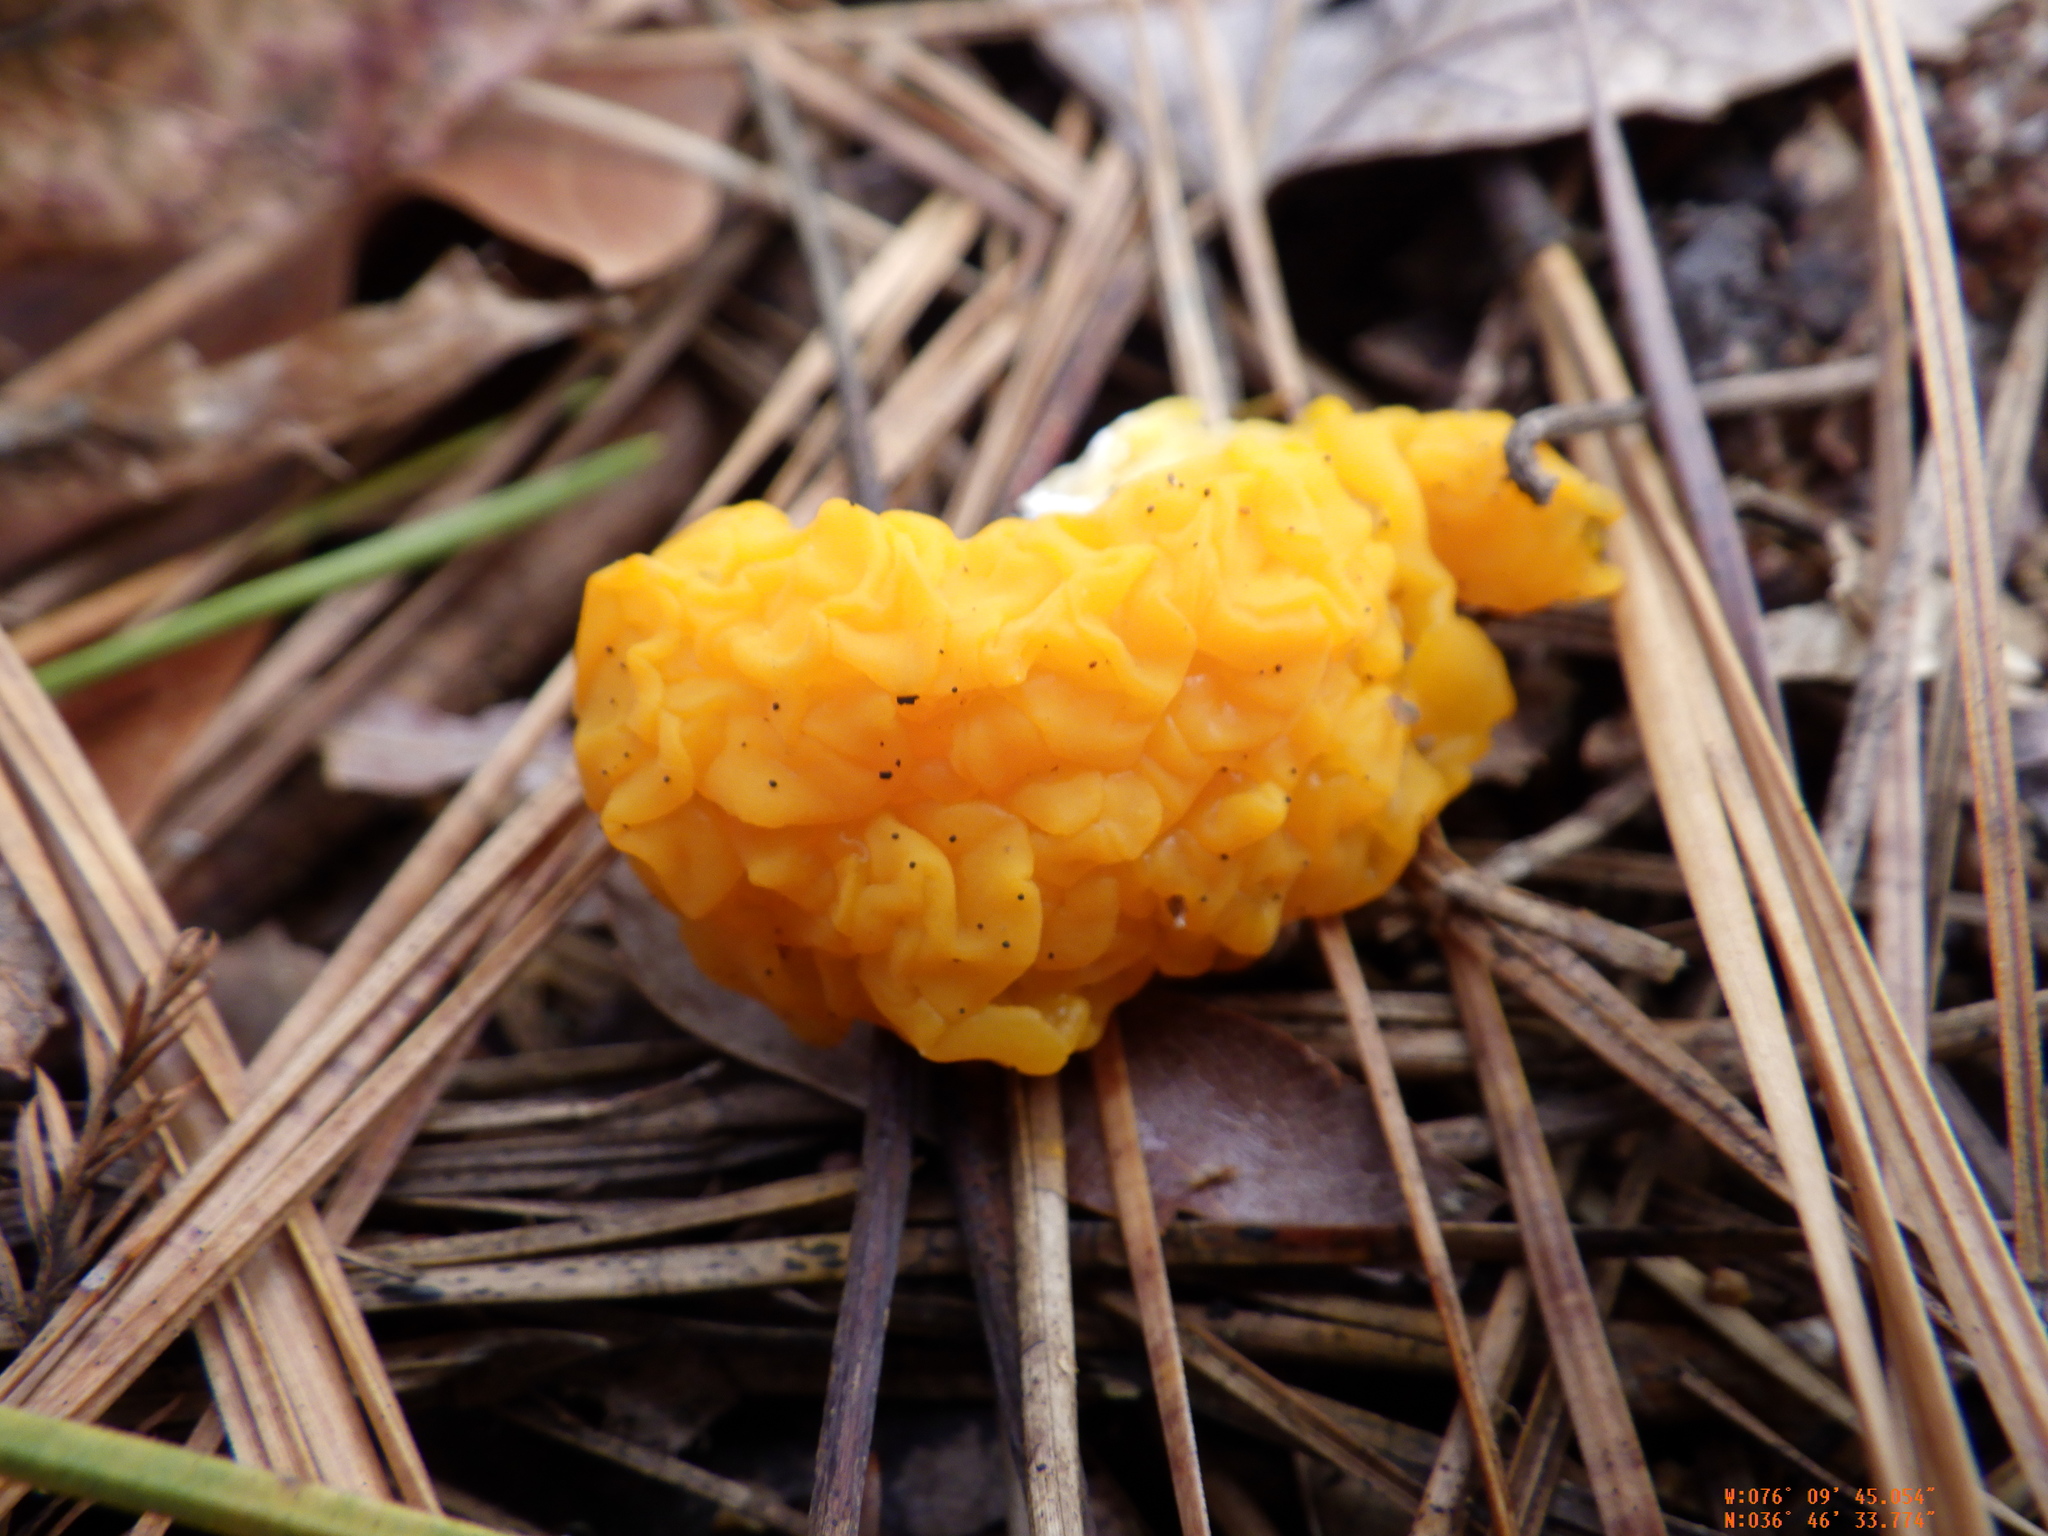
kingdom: Fungi
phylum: Basidiomycota
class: Dacrymycetes
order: Dacrymycetales
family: Dacrymycetaceae
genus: Dacrymyces
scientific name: Dacrymyces chrysospermus
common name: Orange jelly spot
